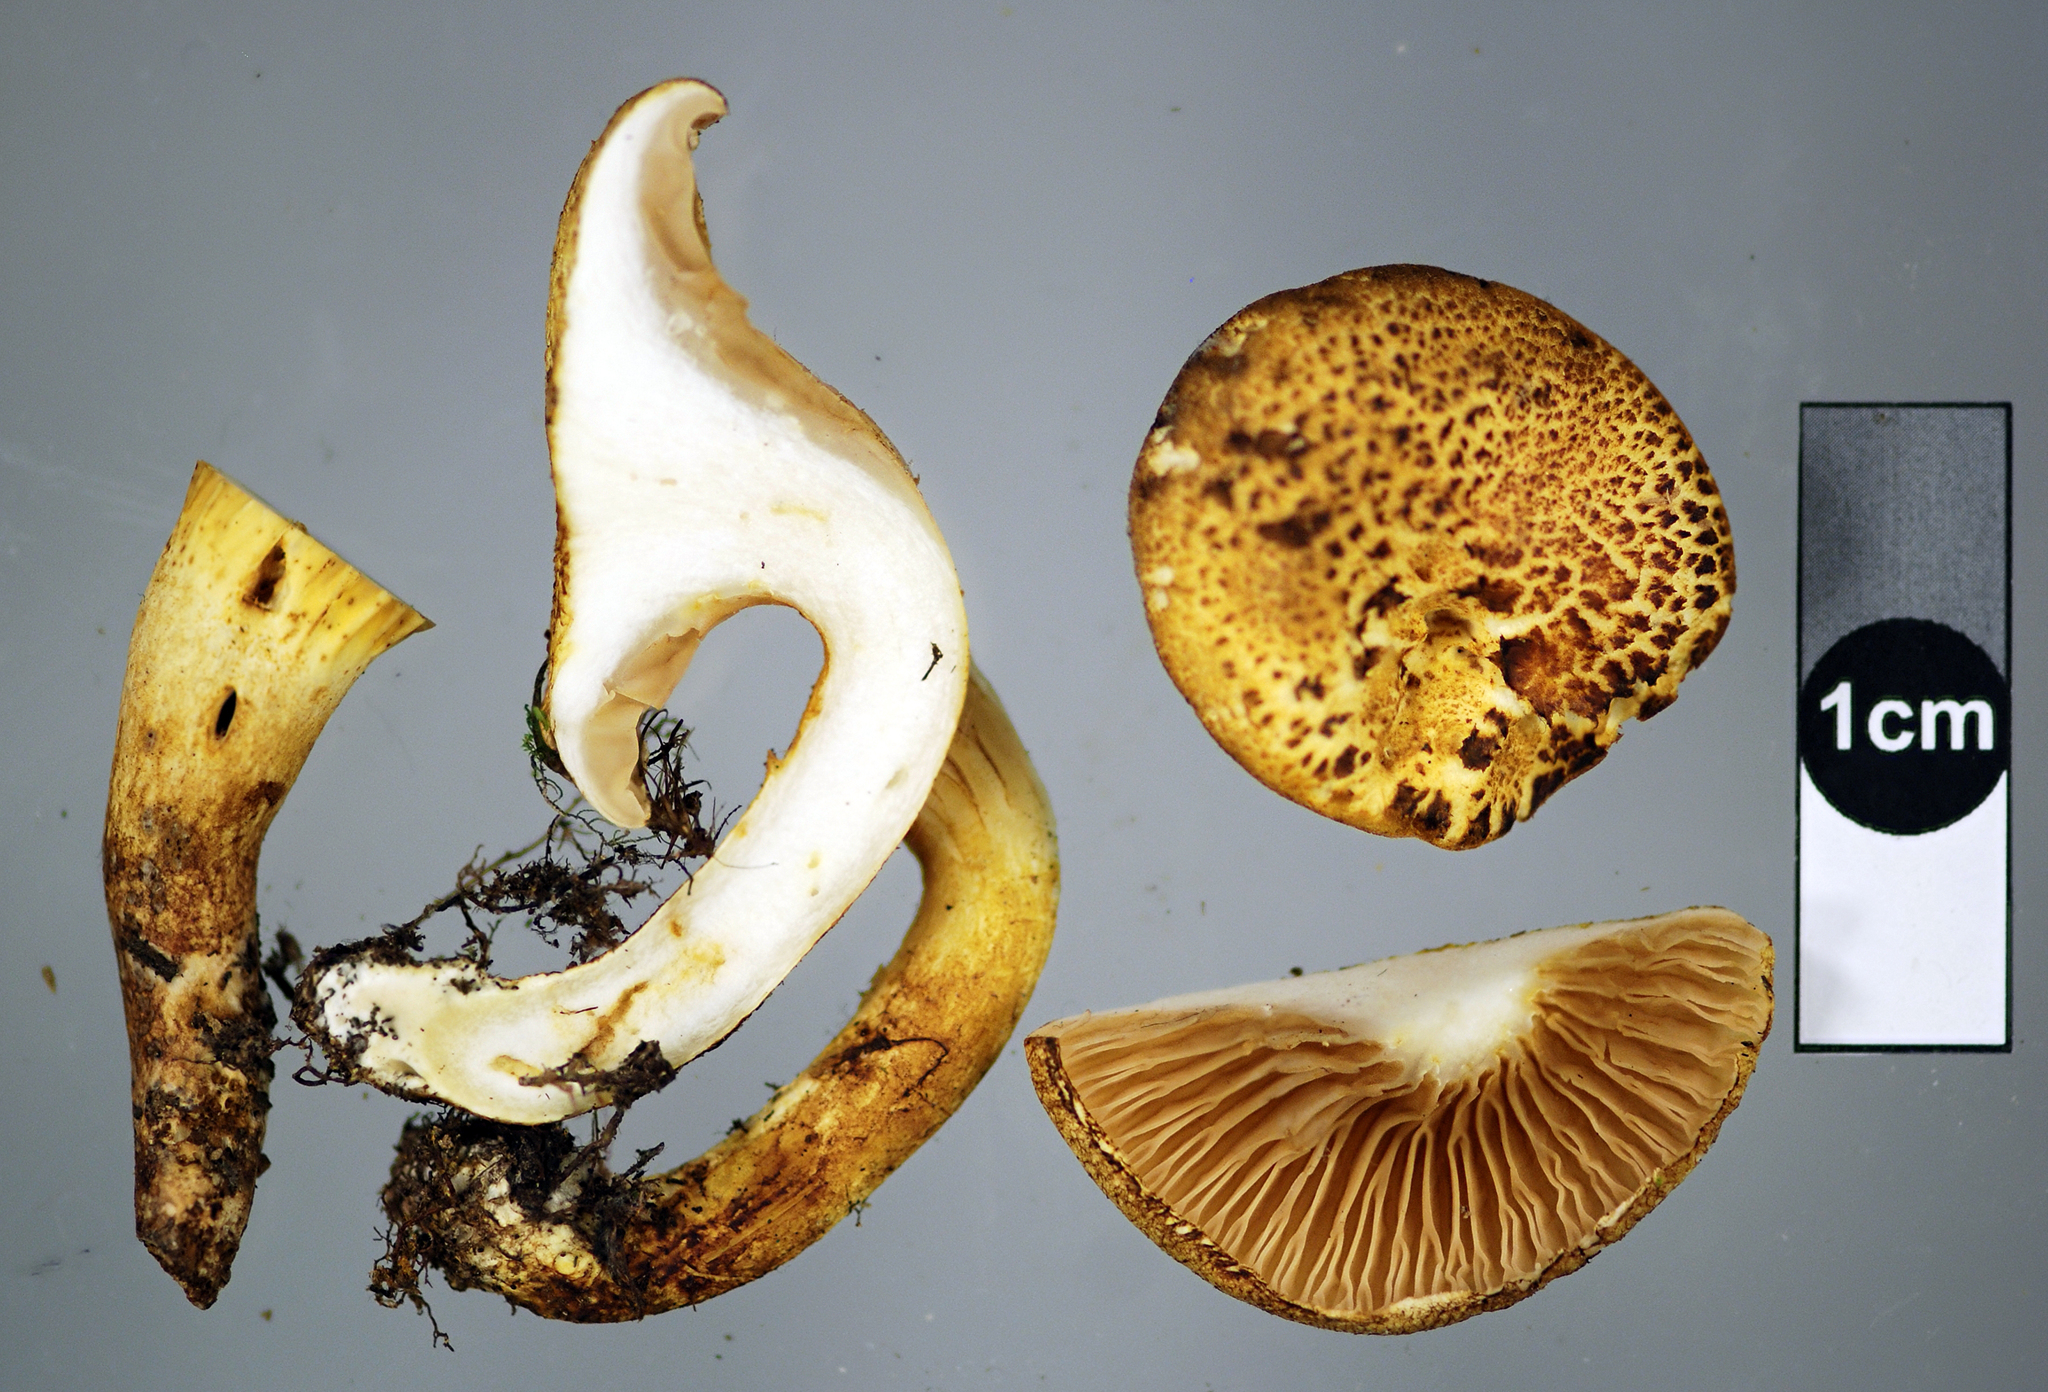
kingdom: Fungi
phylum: Basidiomycota
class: Agaricomycetes
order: Boletales
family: Serpulaceae
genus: Austropaxillus
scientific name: Austropaxillus mcnabbii
